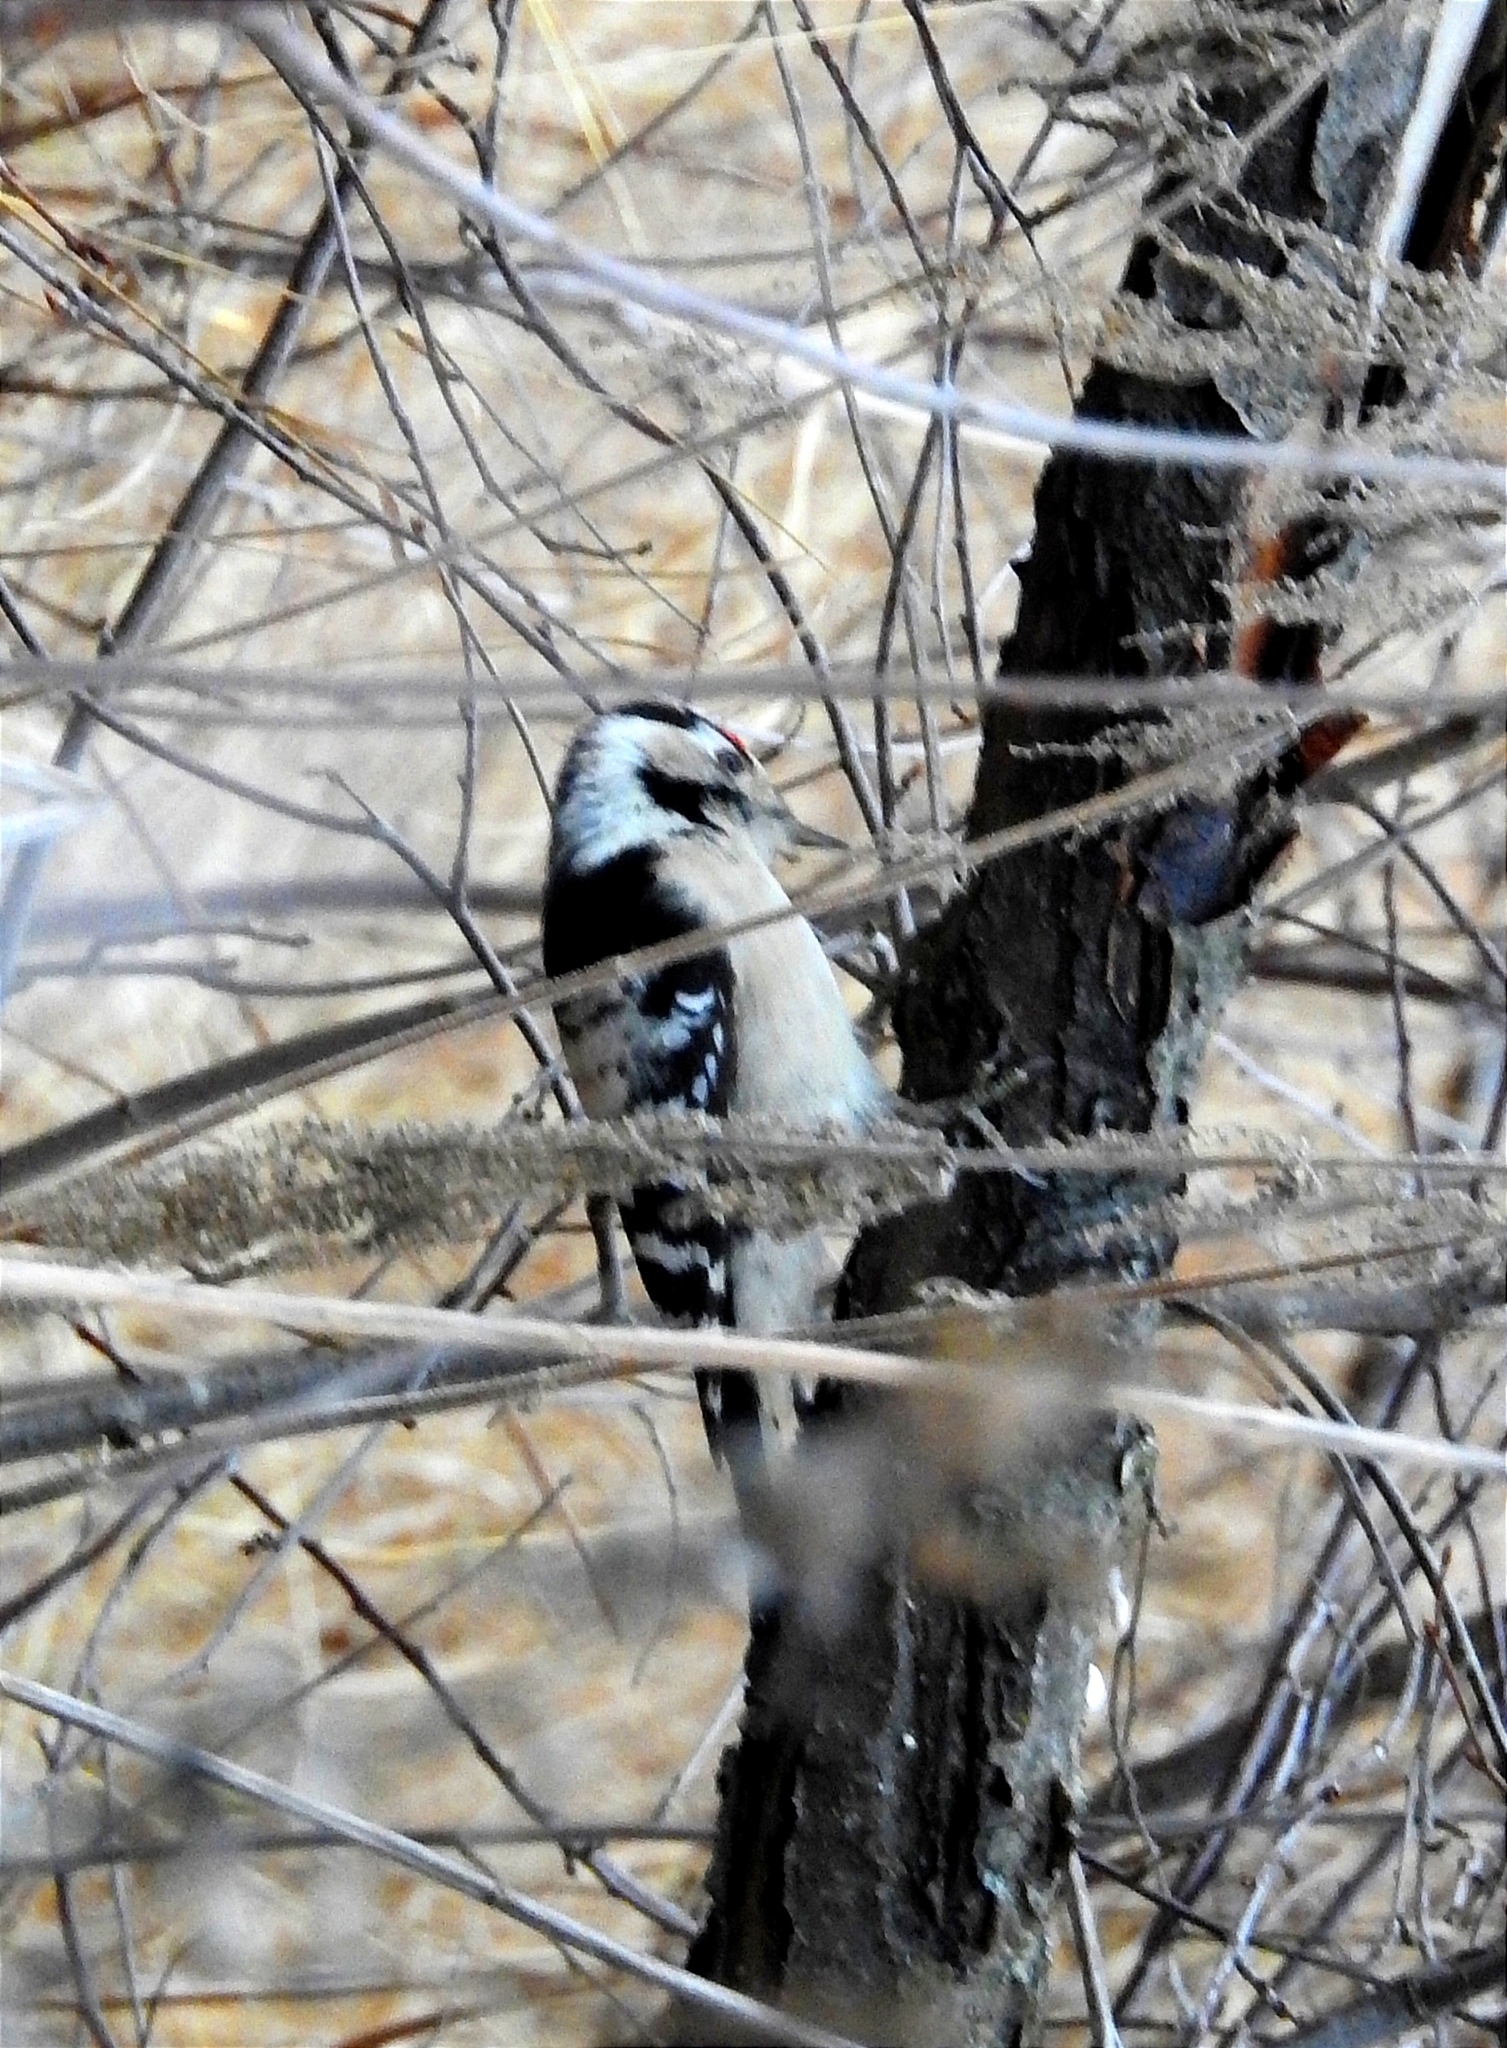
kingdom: Animalia
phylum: Chordata
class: Aves
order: Piciformes
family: Picidae
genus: Dryobates
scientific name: Dryobates minor
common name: Lesser spotted woodpecker
